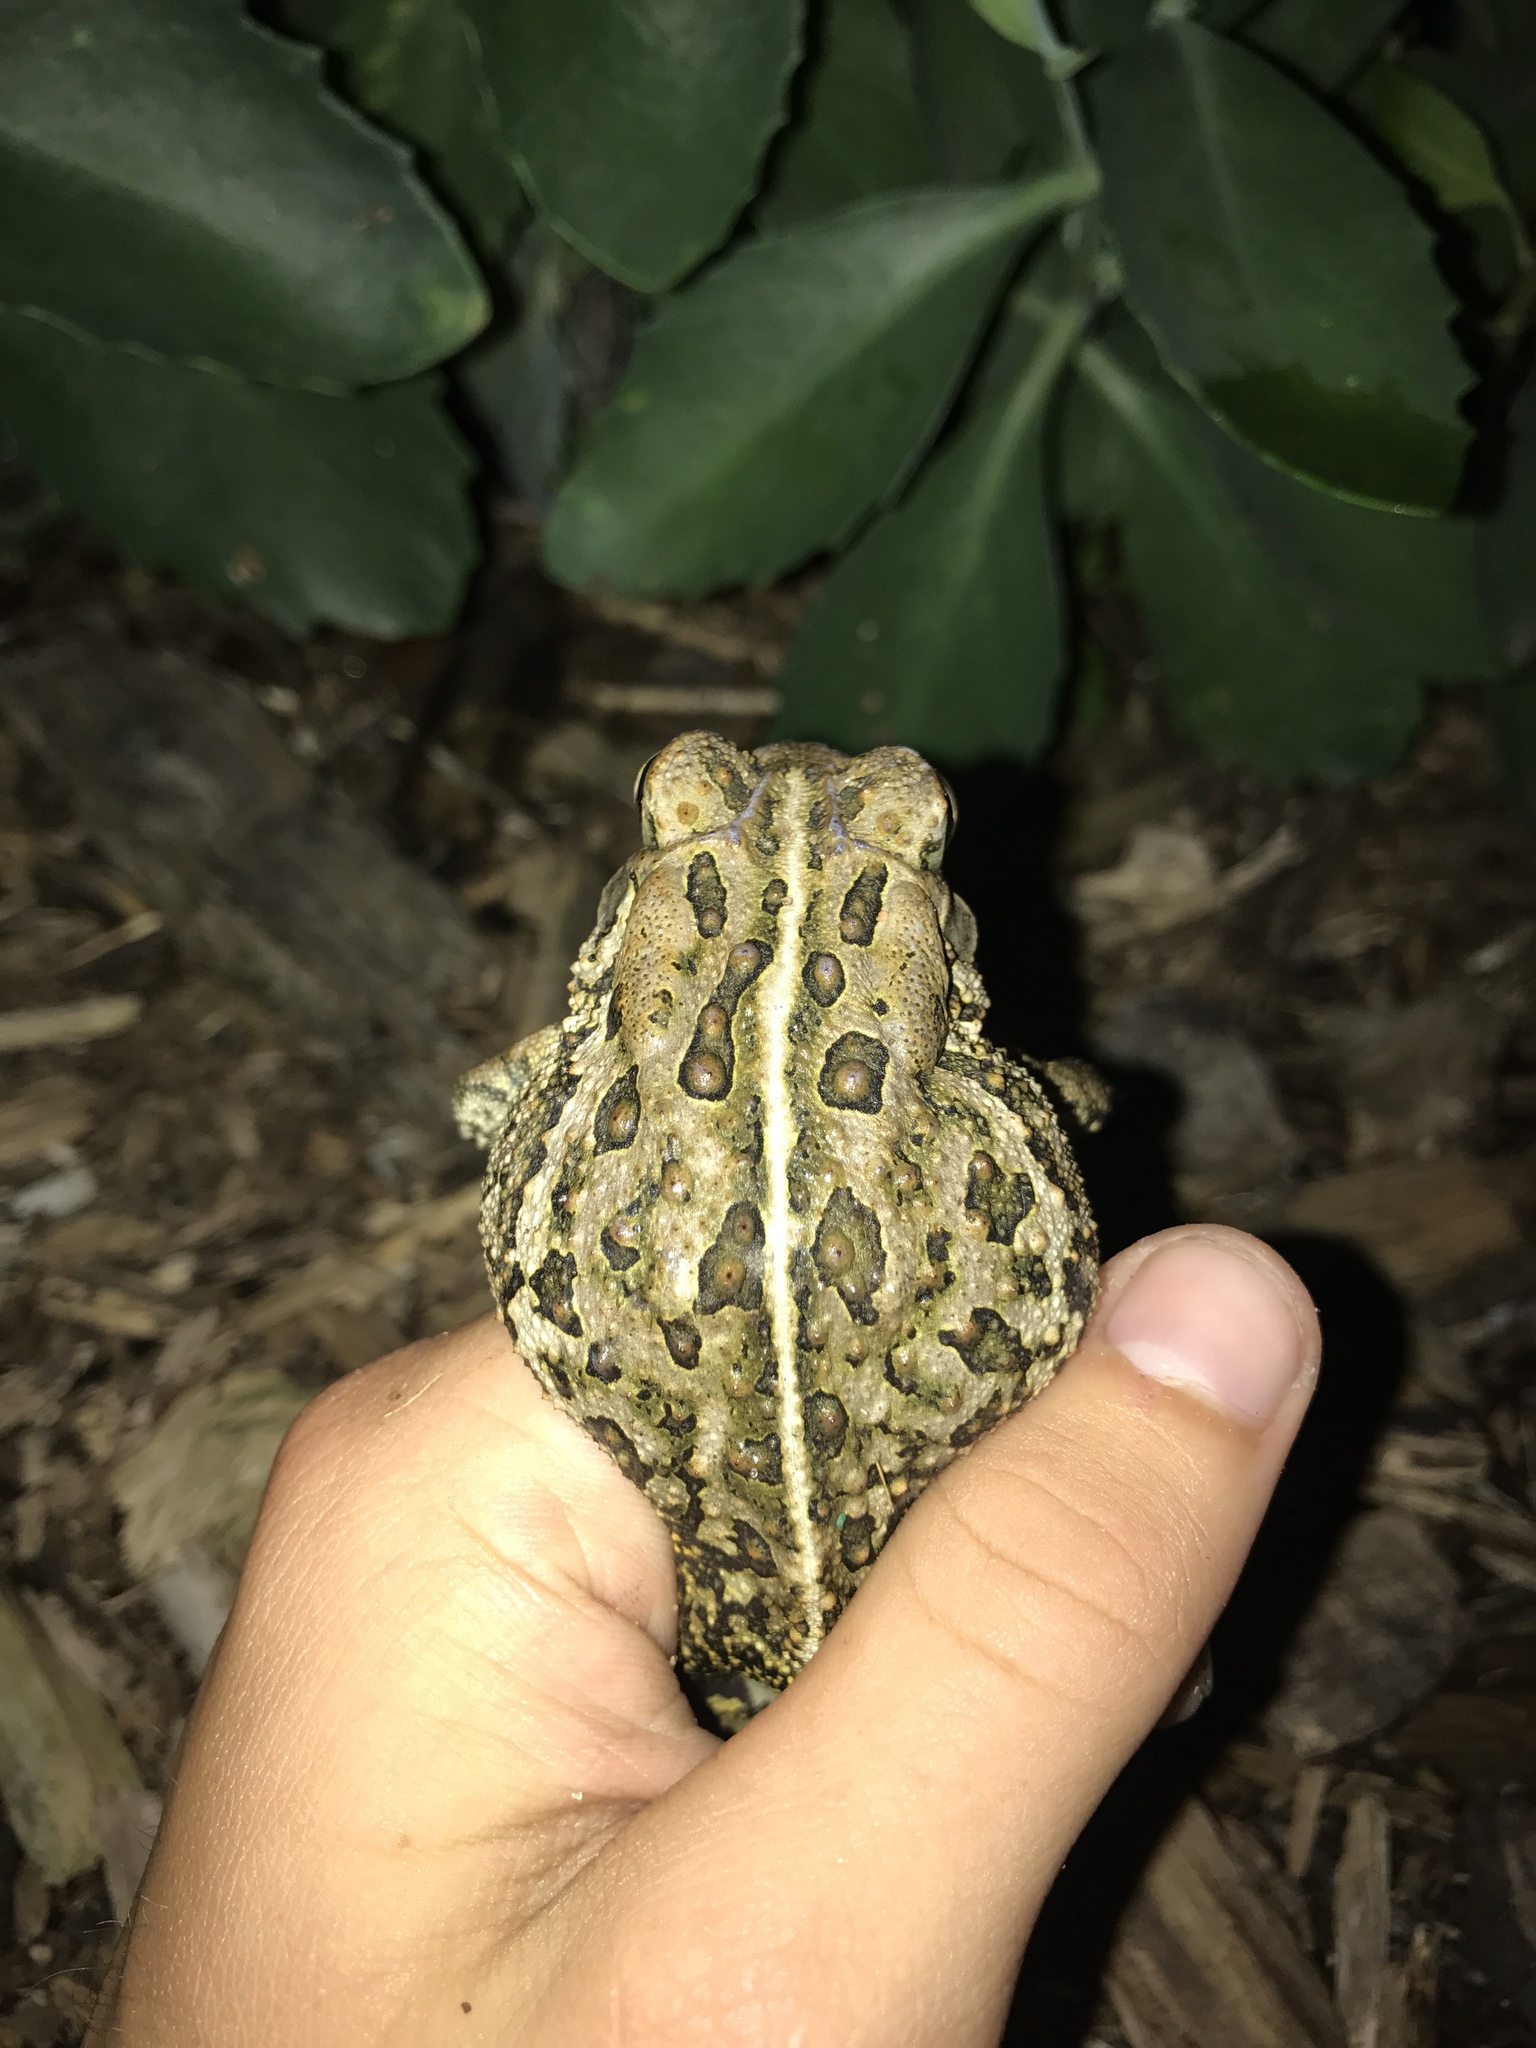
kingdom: Animalia
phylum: Chordata
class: Amphibia
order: Anura
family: Bufonidae
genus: Anaxyrus
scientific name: Anaxyrus americanus
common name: American toad
